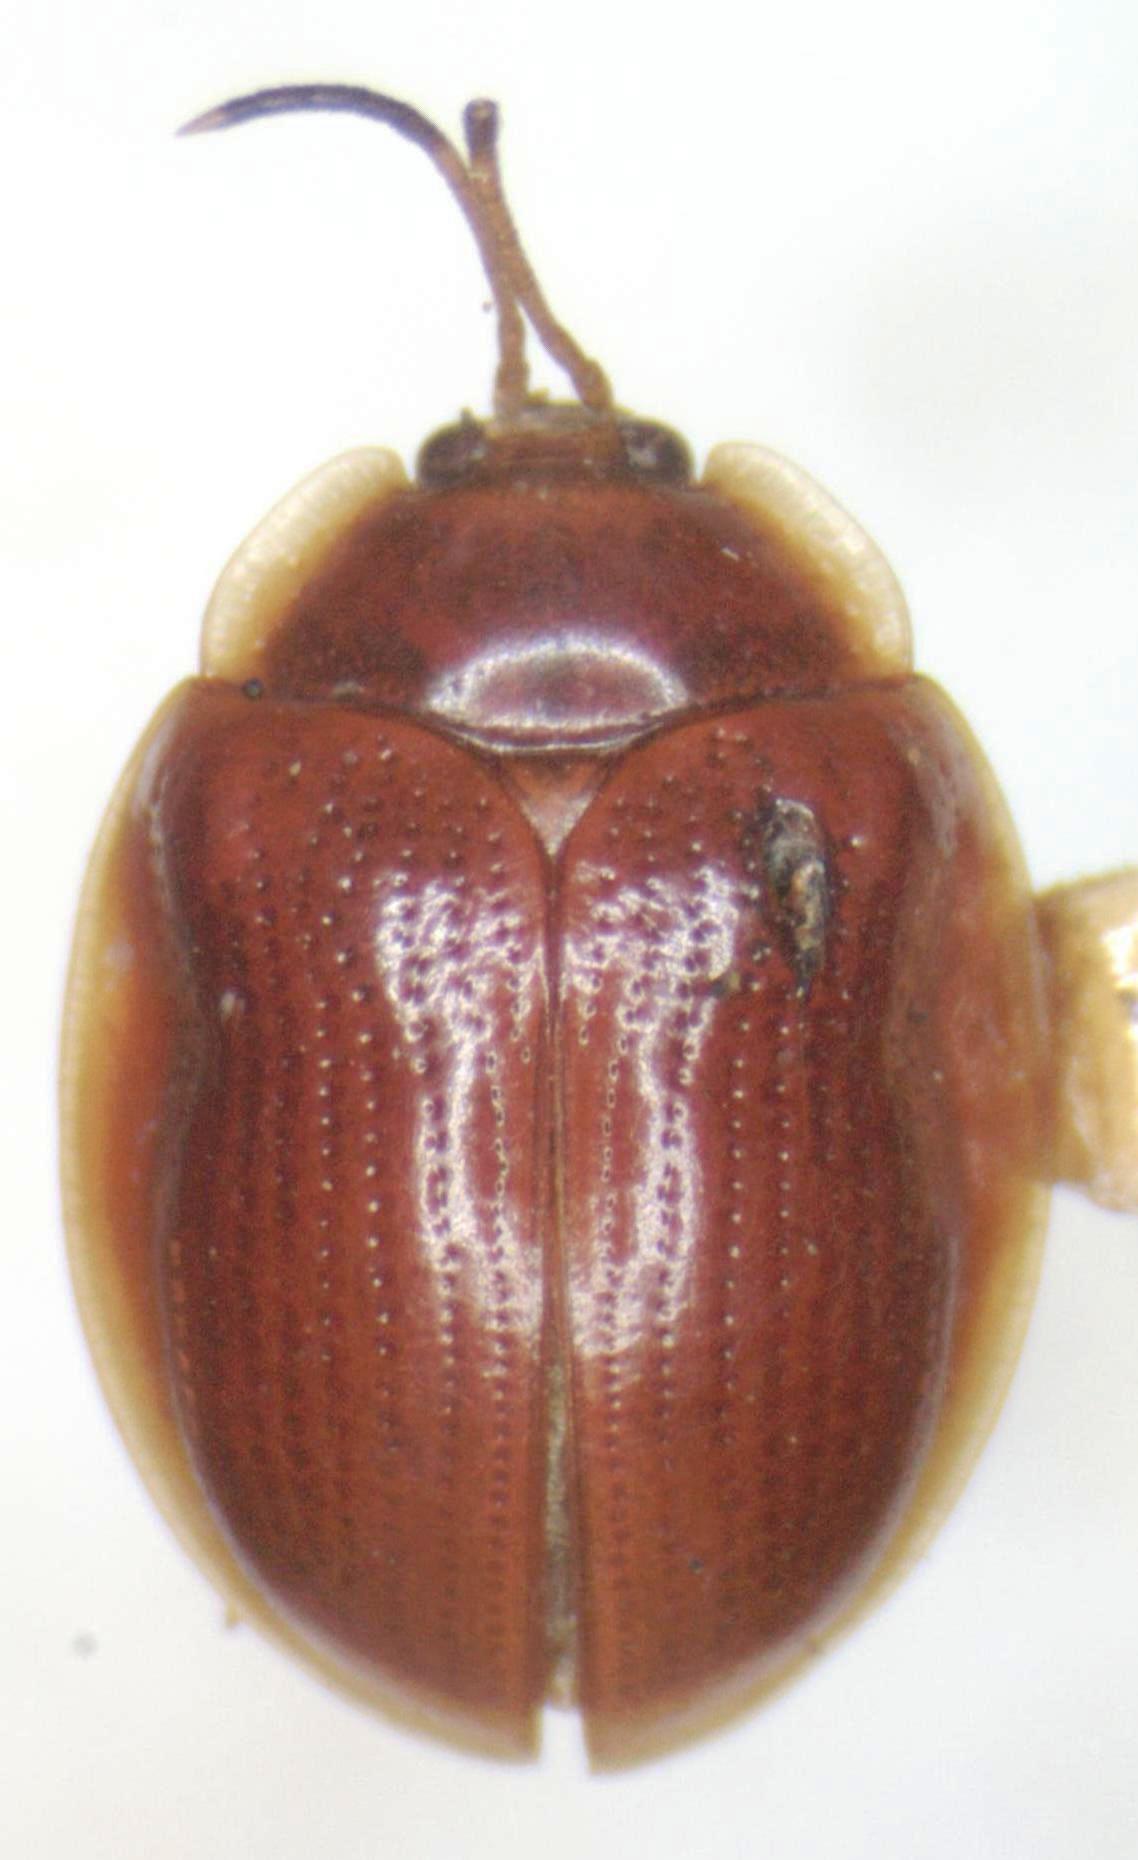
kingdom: Animalia
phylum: Arthropoda
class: Insecta
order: Coleoptera
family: Chrysomelidae
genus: Demotispa
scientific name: Demotispa
